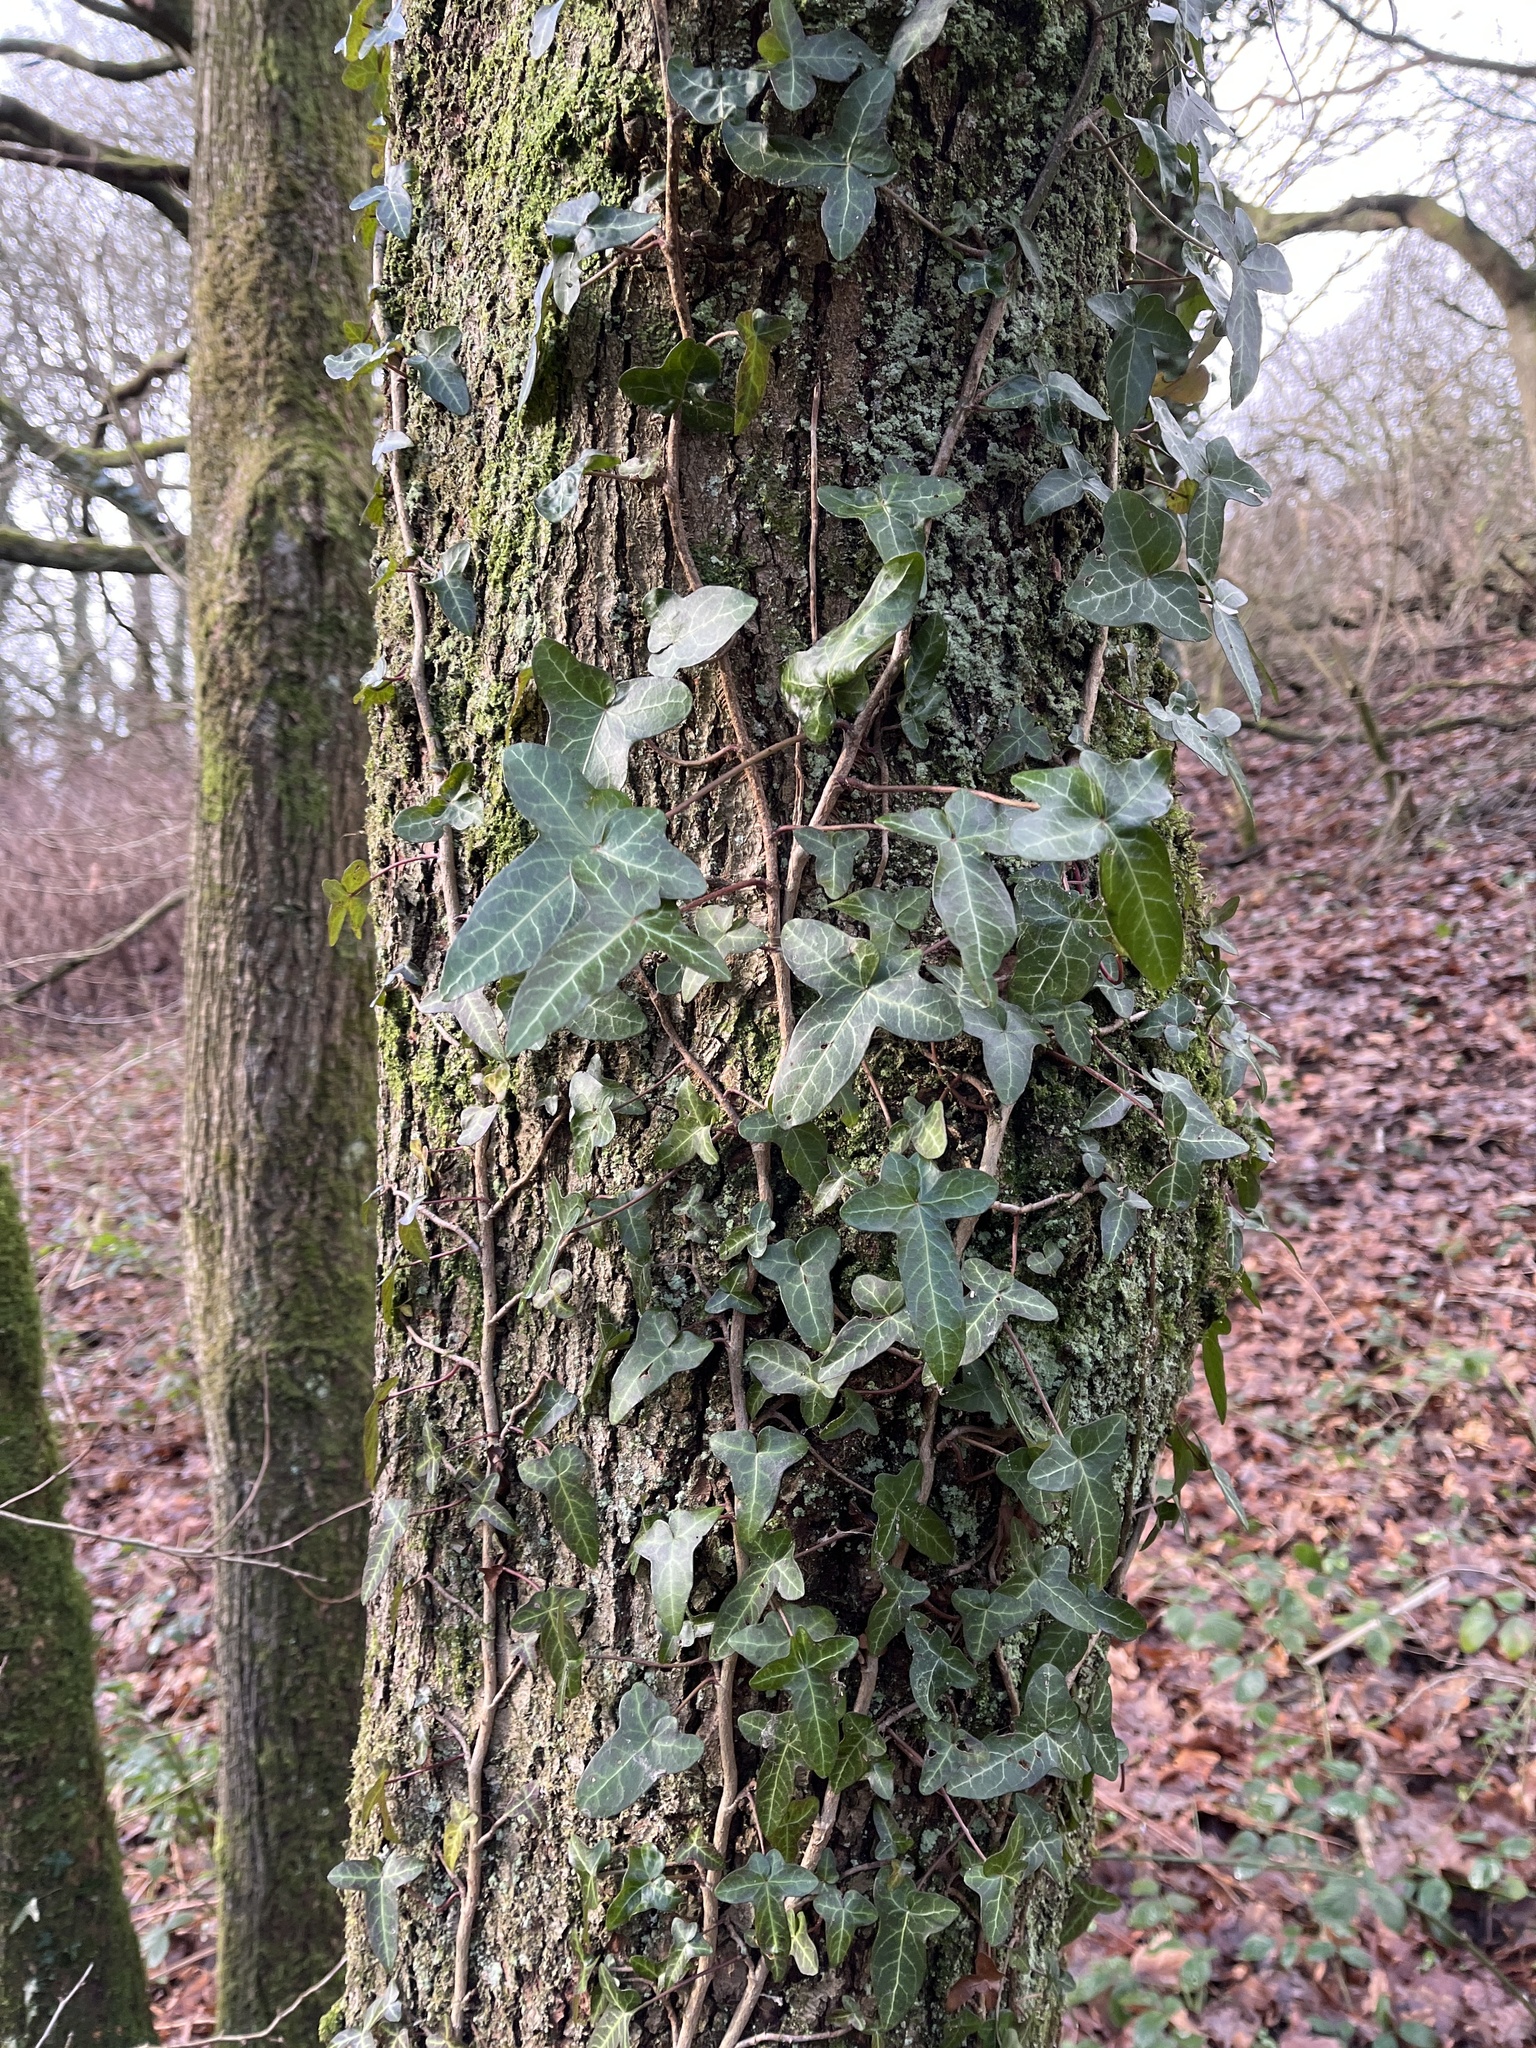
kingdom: Plantae
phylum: Tracheophyta
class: Magnoliopsida
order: Apiales
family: Araliaceae
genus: Hedera
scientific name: Hedera helix
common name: Ivy
